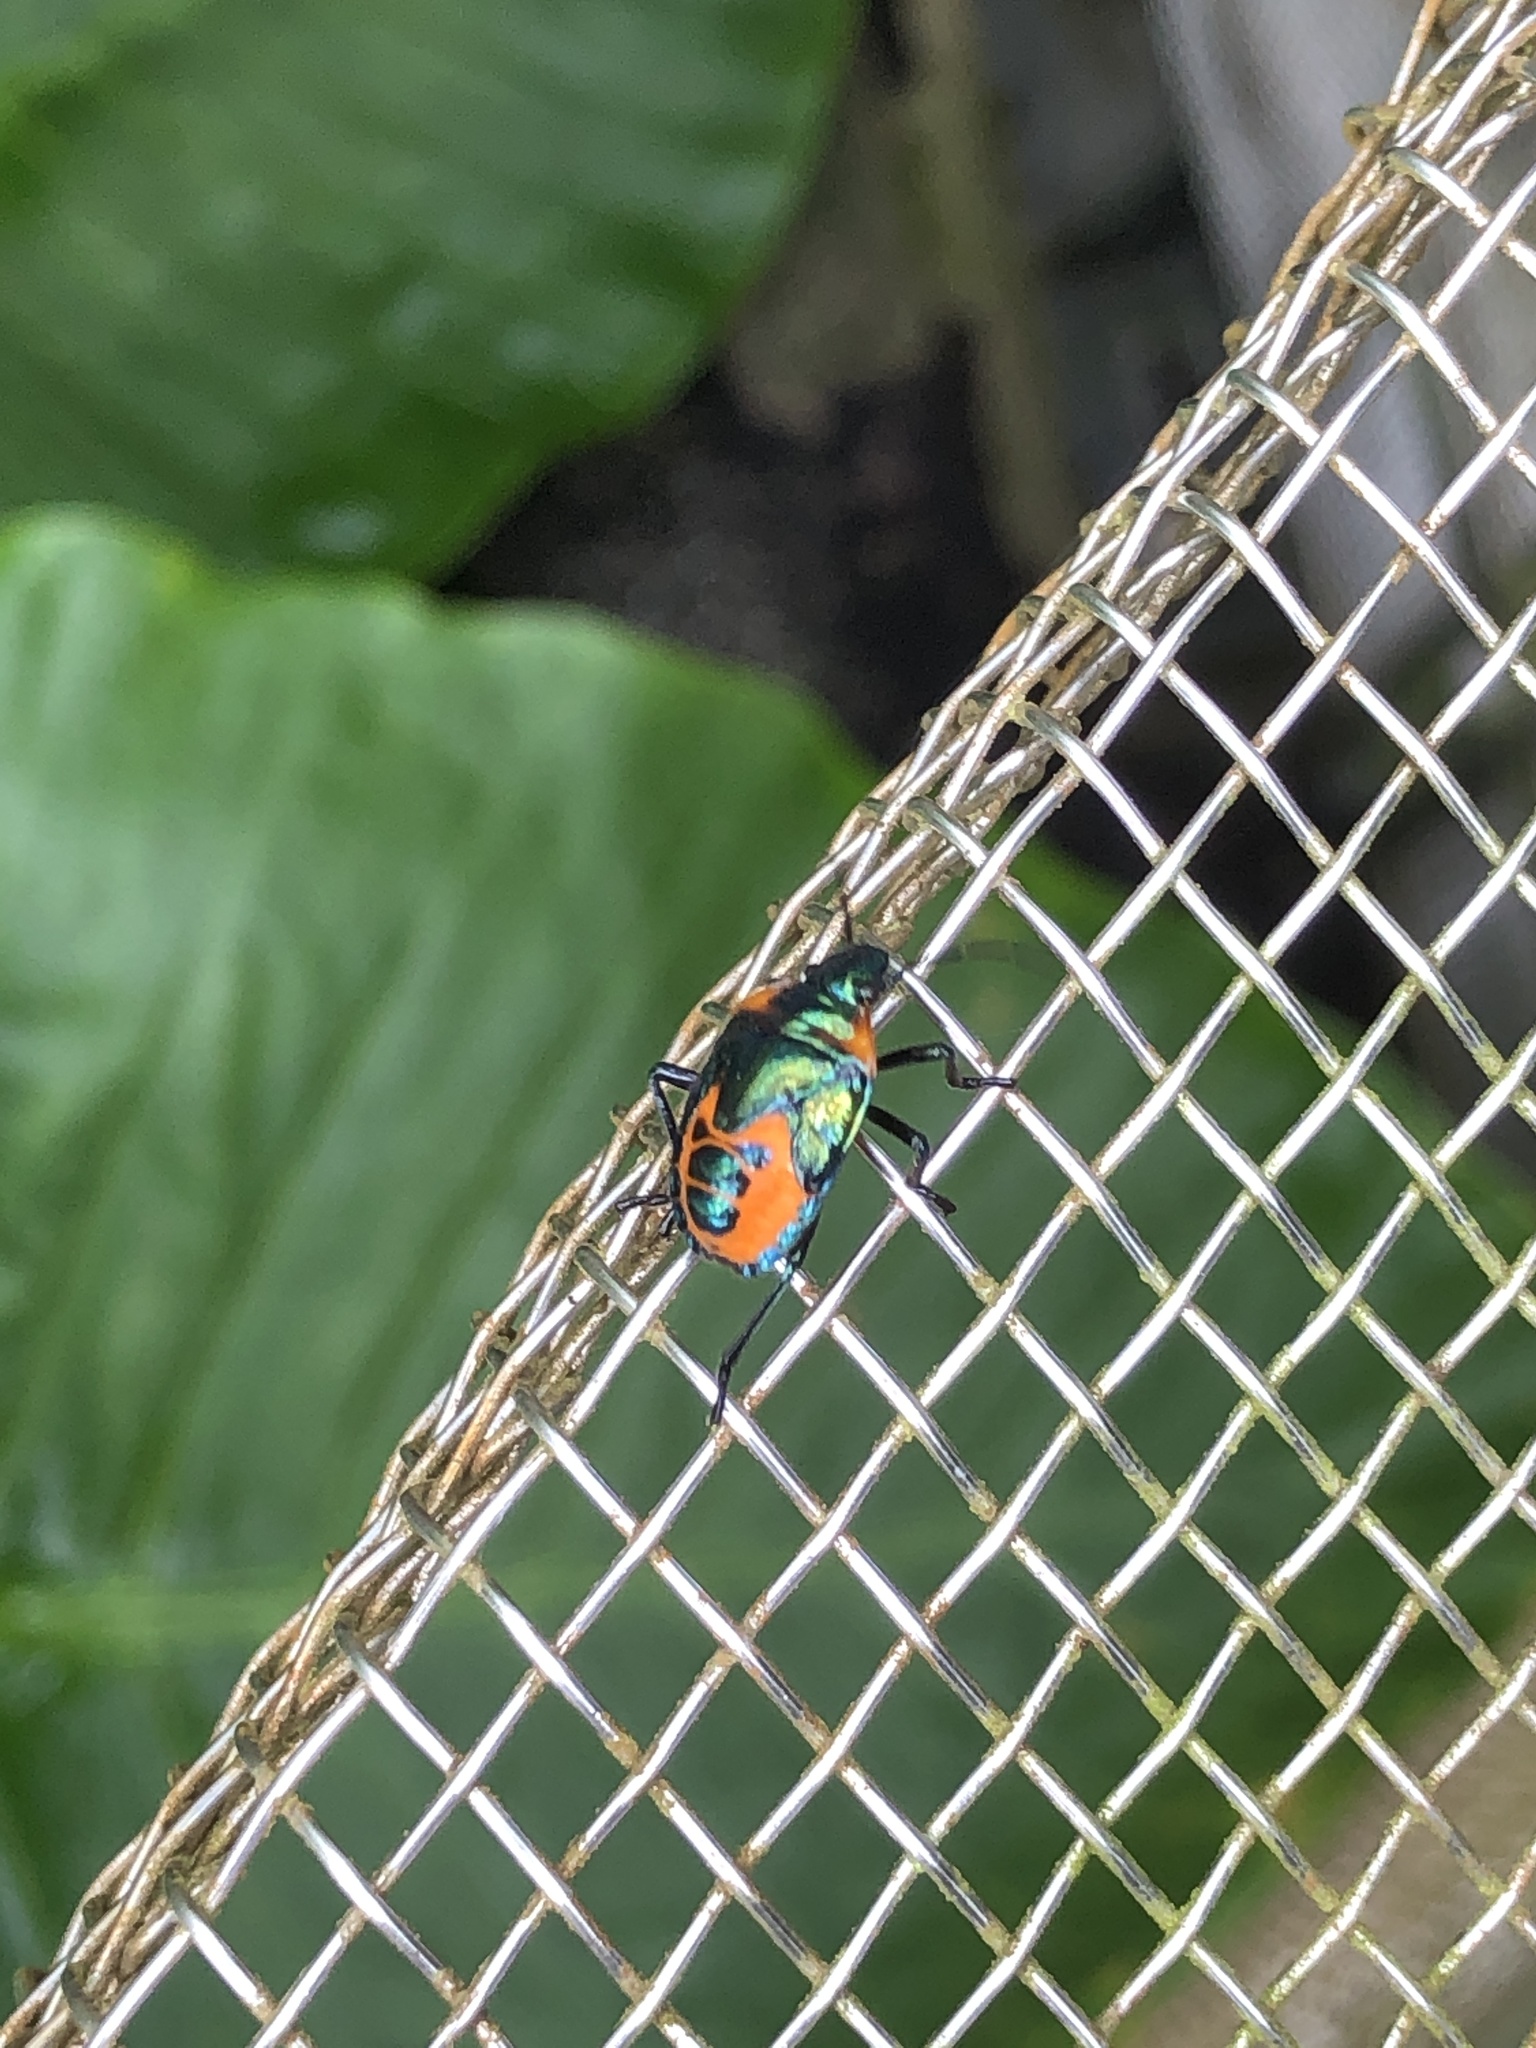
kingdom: Animalia
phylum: Arthropoda
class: Insecta
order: Hemiptera
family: Scutelleridae
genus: Cantao
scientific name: Cantao ocellatus
